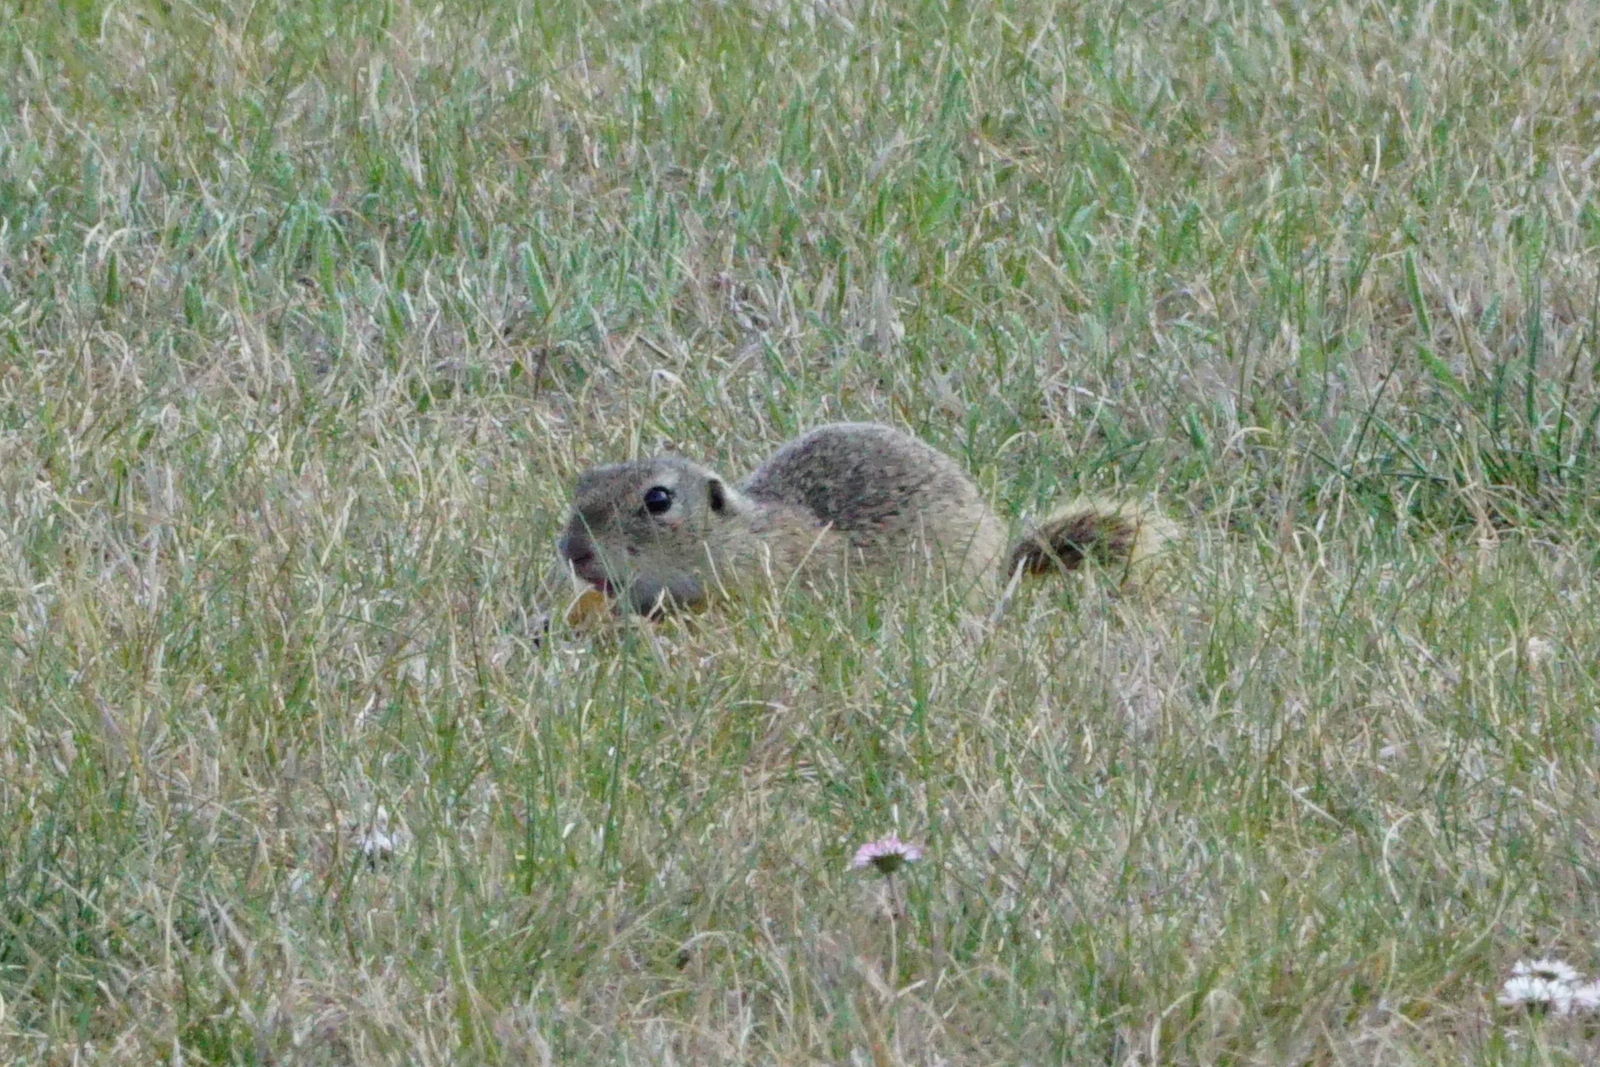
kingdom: Animalia
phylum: Chordata
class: Mammalia
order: Rodentia
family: Sciuridae
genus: Spermophilus
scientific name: Spermophilus citellus
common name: European ground squirrel
